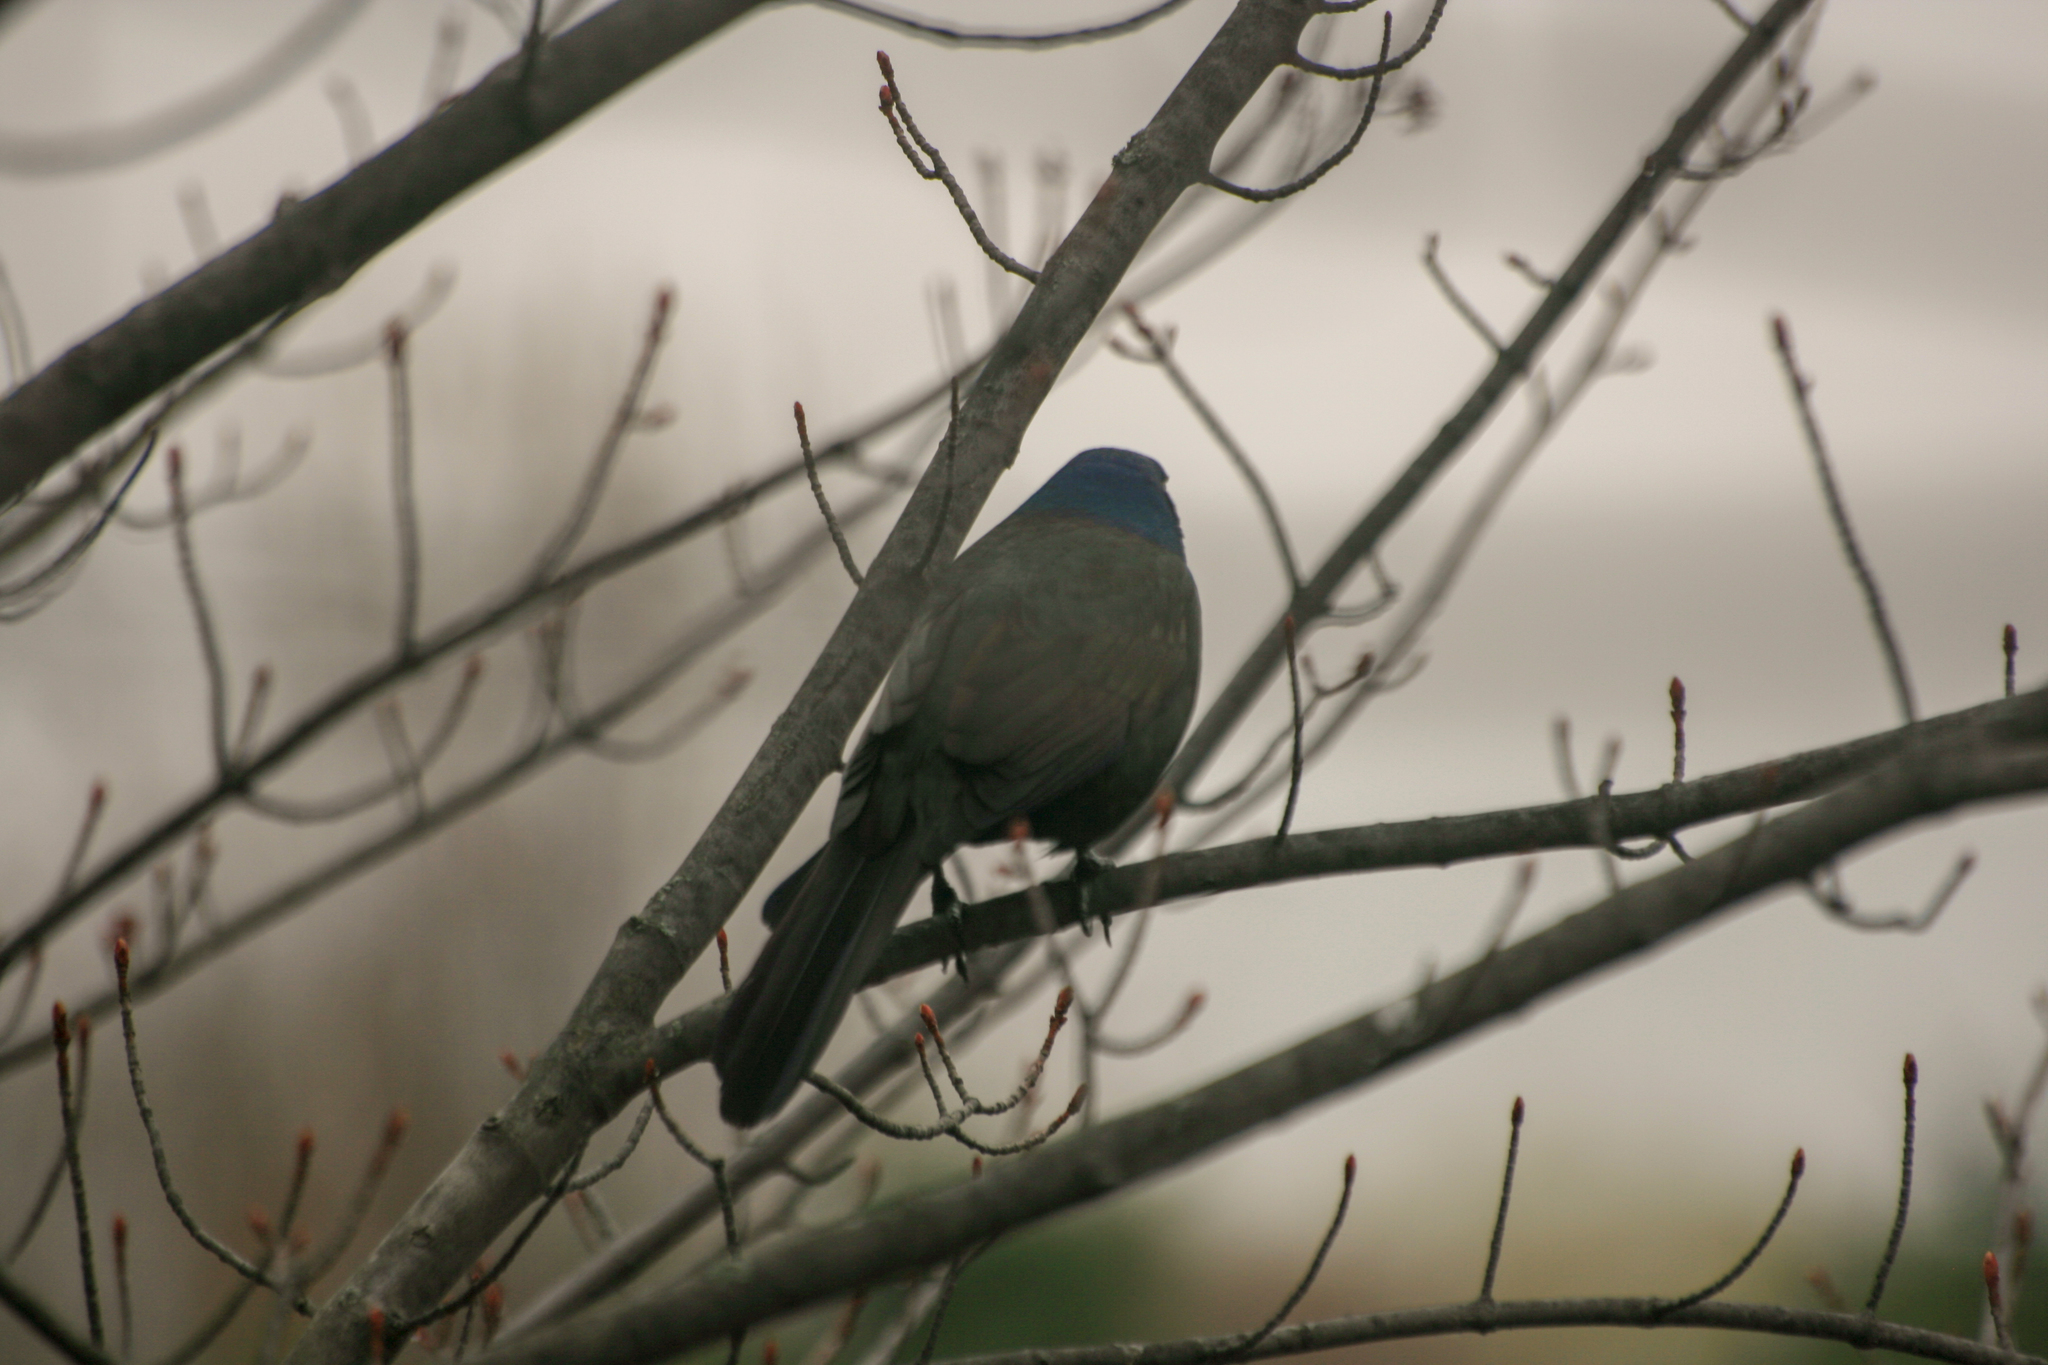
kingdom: Animalia
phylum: Chordata
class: Aves
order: Passeriformes
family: Icteridae
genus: Quiscalus
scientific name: Quiscalus quiscula
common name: Common grackle
